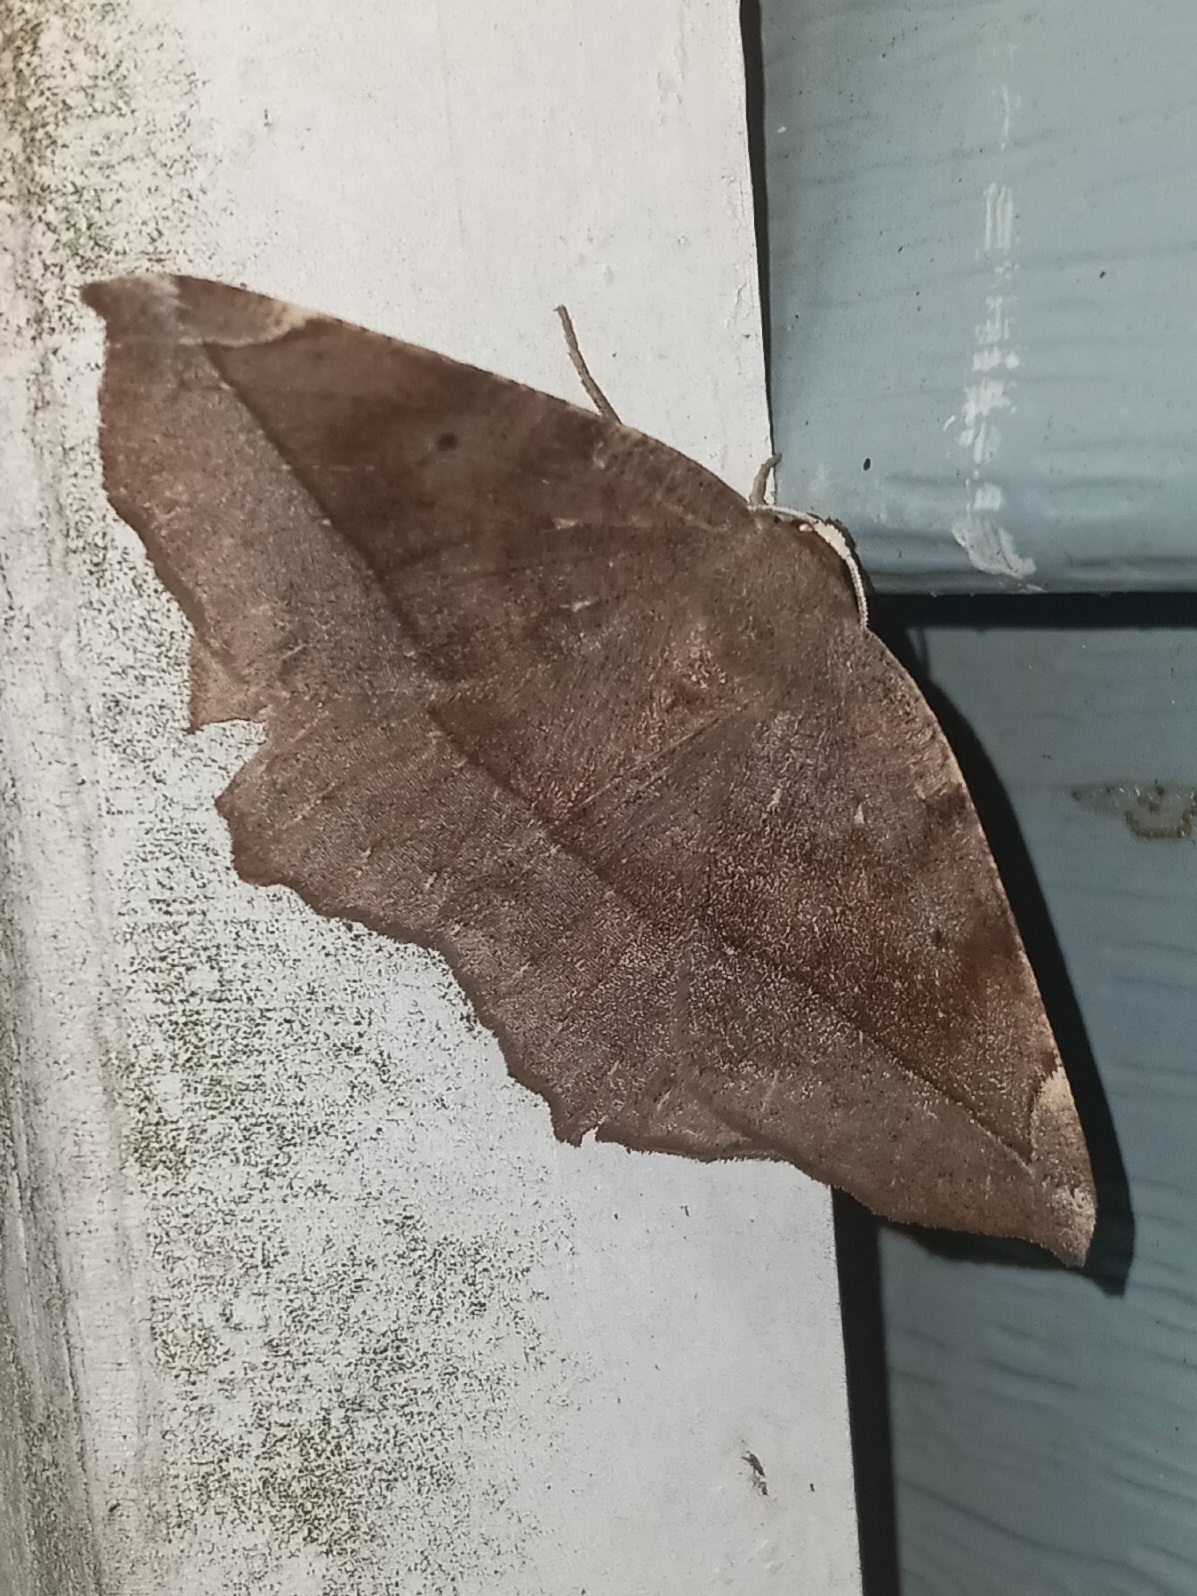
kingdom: Animalia
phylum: Arthropoda
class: Insecta
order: Lepidoptera
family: Geometridae
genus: Eutrapela
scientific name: Eutrapela clemataria
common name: Curved-toothed geometer
